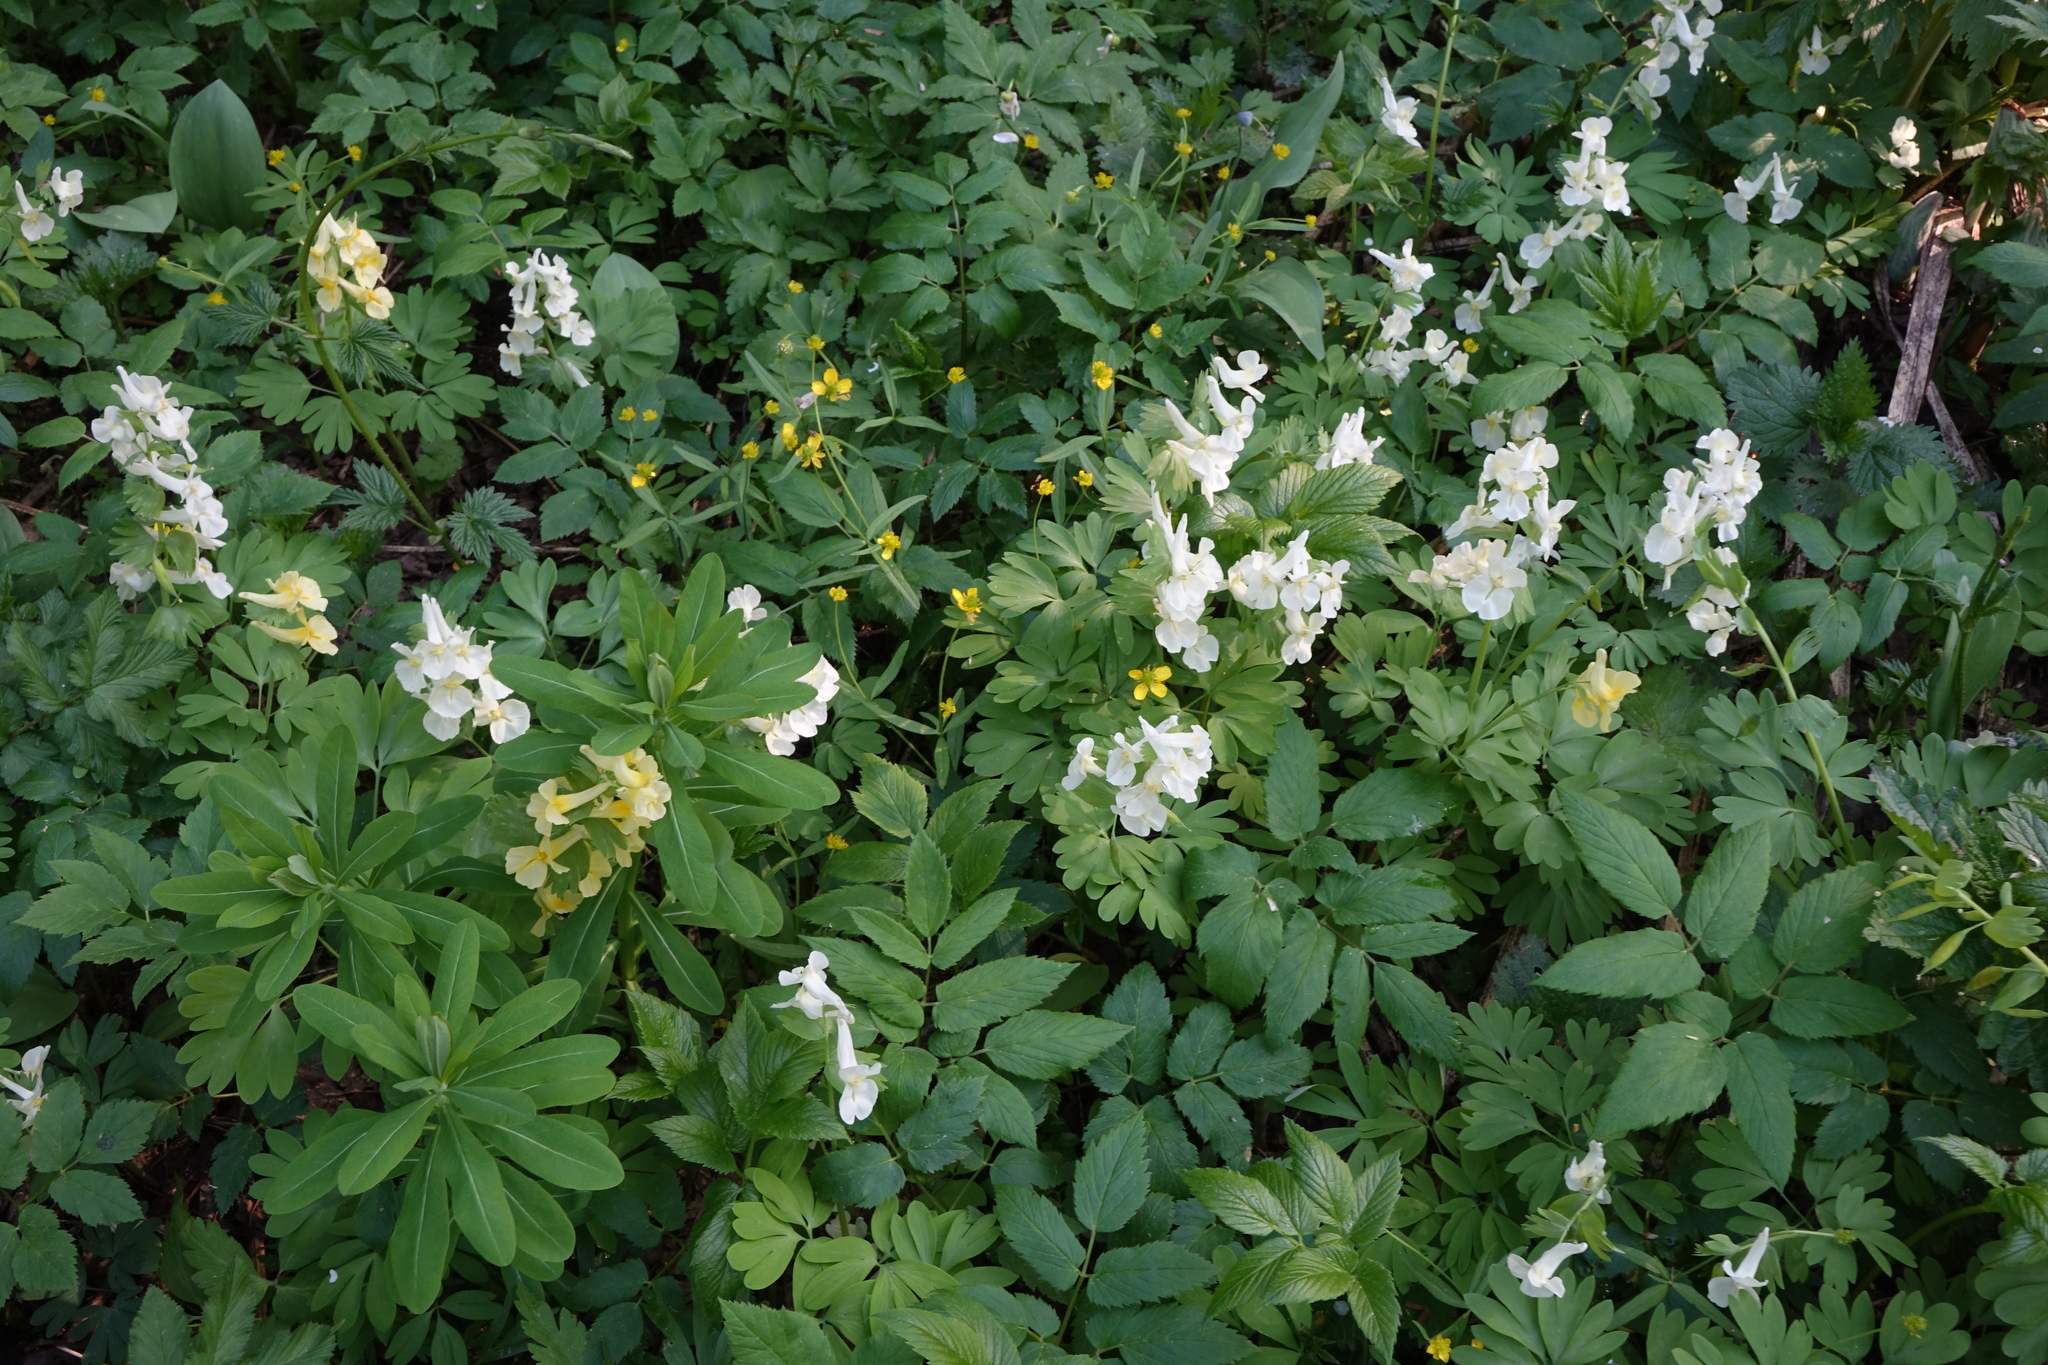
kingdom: Plantae
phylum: Tracheophyta
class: Magnoliopsida
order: Ranunculales
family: Papaveraceae
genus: Corydalis
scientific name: Corydalis bracteata
